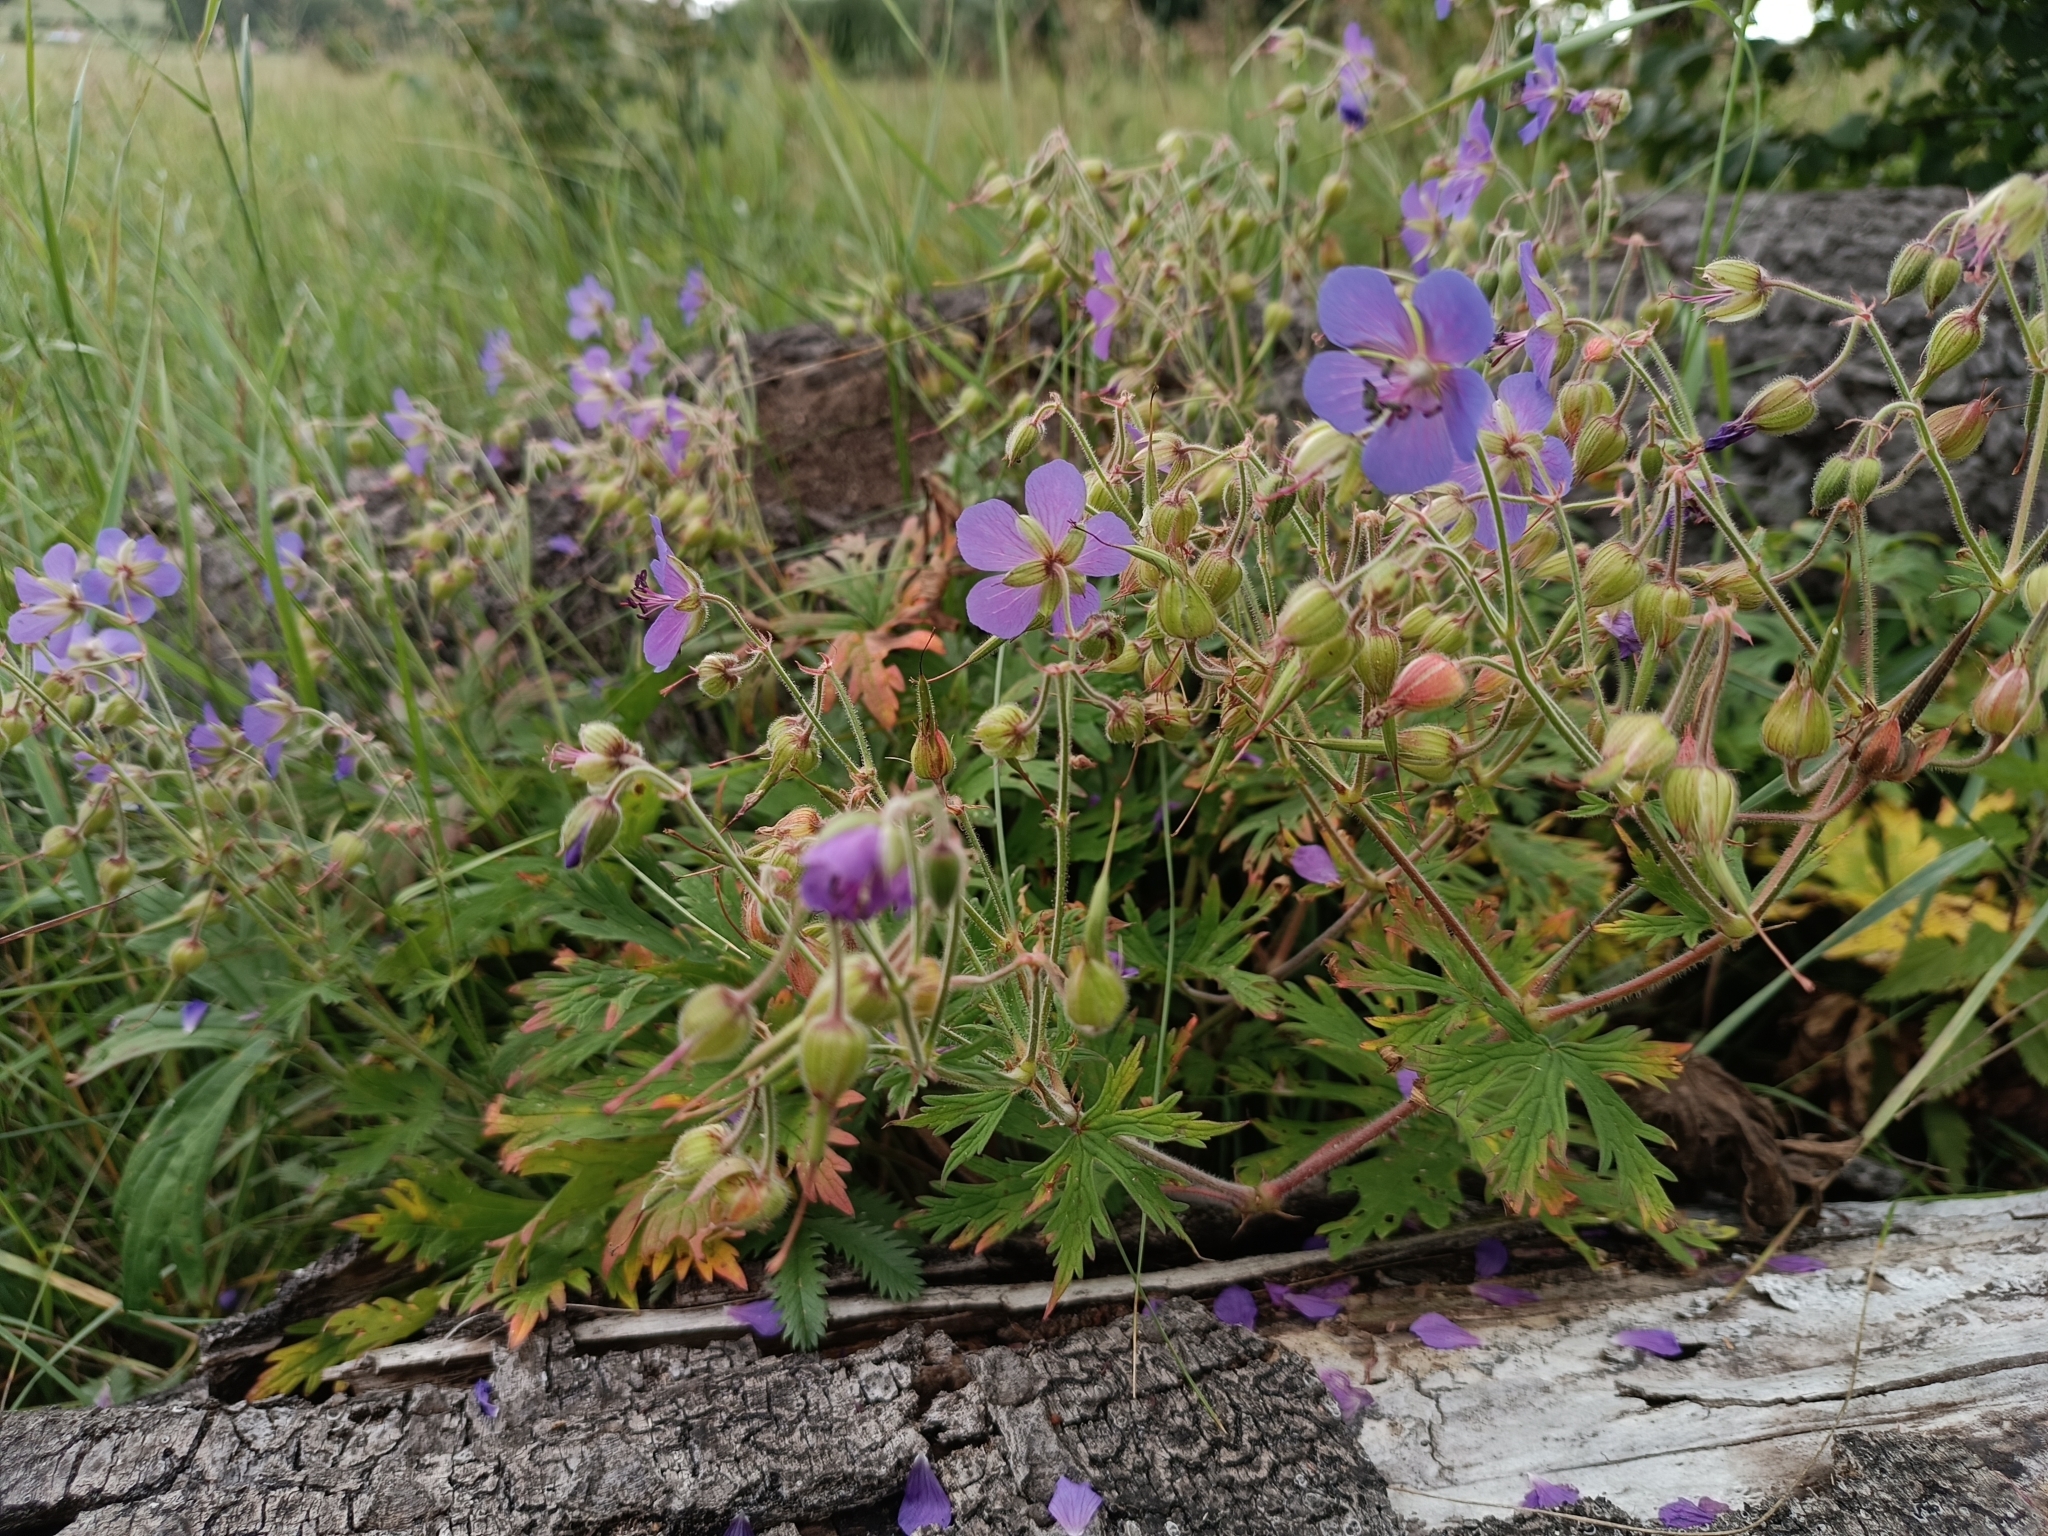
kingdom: Plantae
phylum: Tracheophyta
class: Magnoliopsida
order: Geraniales
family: Geraniaceae
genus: Geranium
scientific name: Geranium pratense
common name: Meadow crane's-bill
